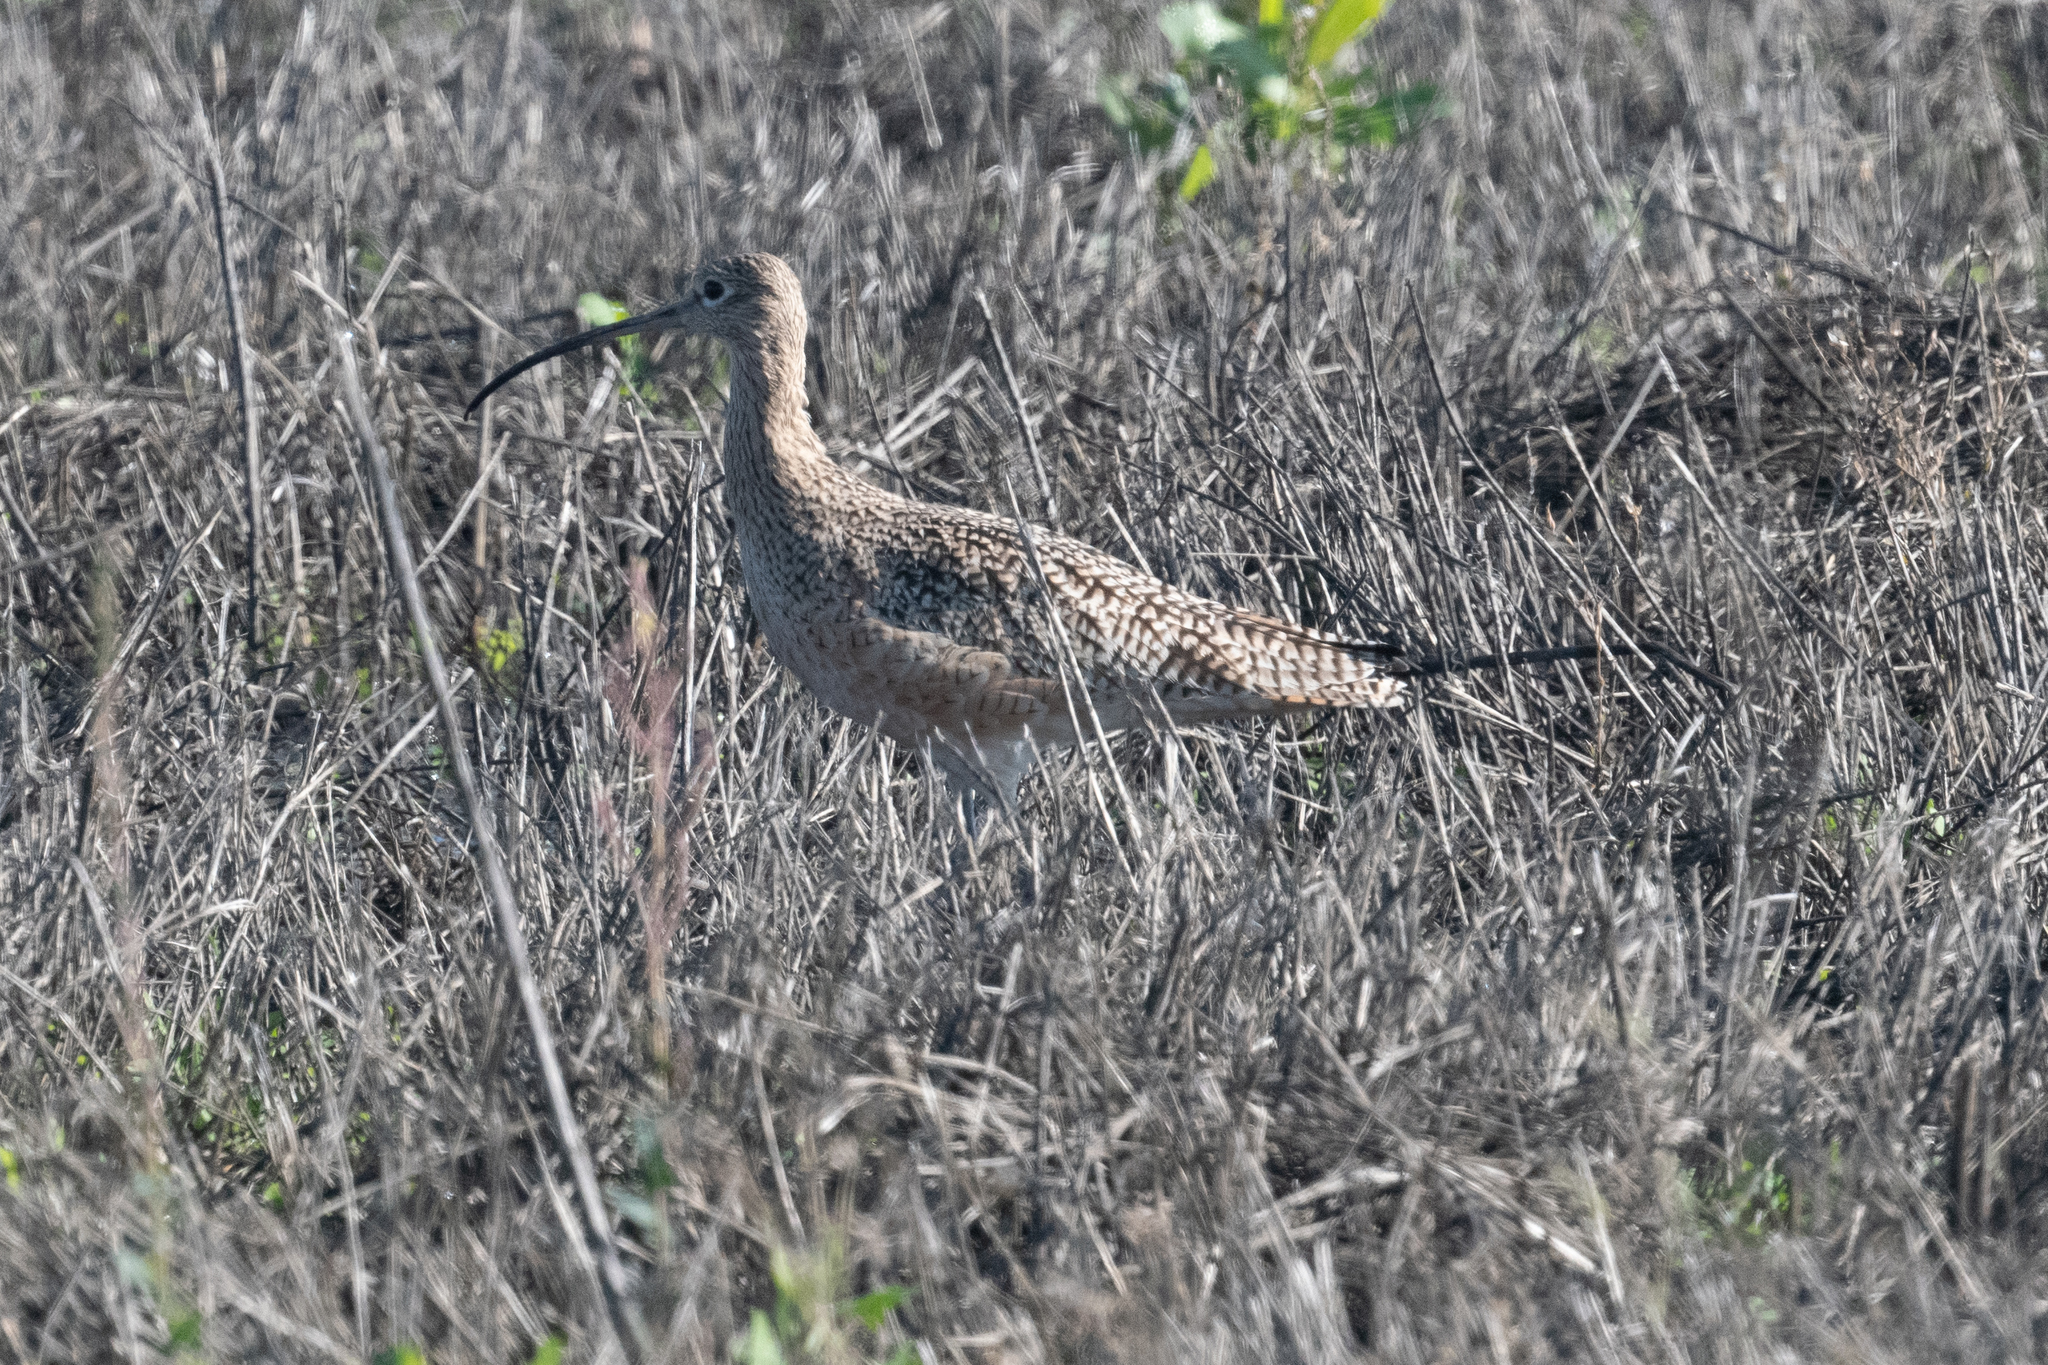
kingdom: Animalia
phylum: Chordata
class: Aves
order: Charadriiformes
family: Scolopacidae
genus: Numenius
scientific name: Numenius americanus
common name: Long-billed curlew
